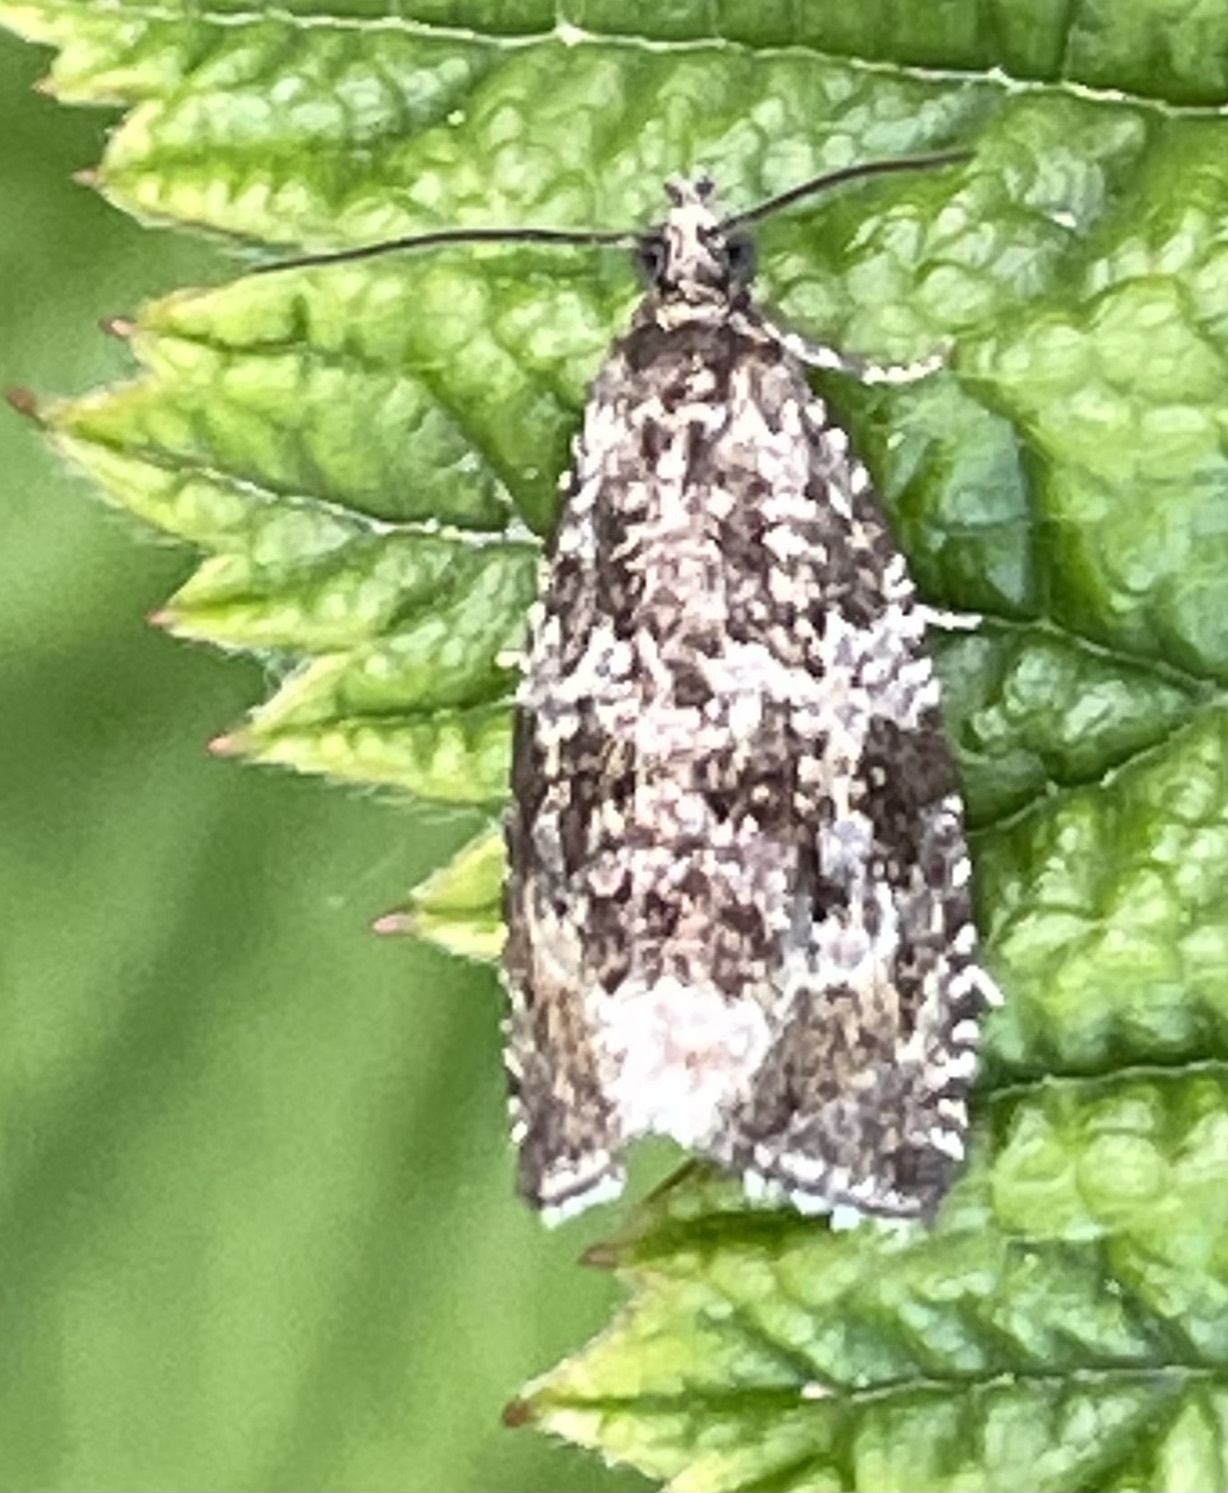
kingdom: Animalia
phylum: Arthropoda
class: Insecta
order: Lepidoptera
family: Tortricidae
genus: Syricoris
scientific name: Syricoris lacunana
